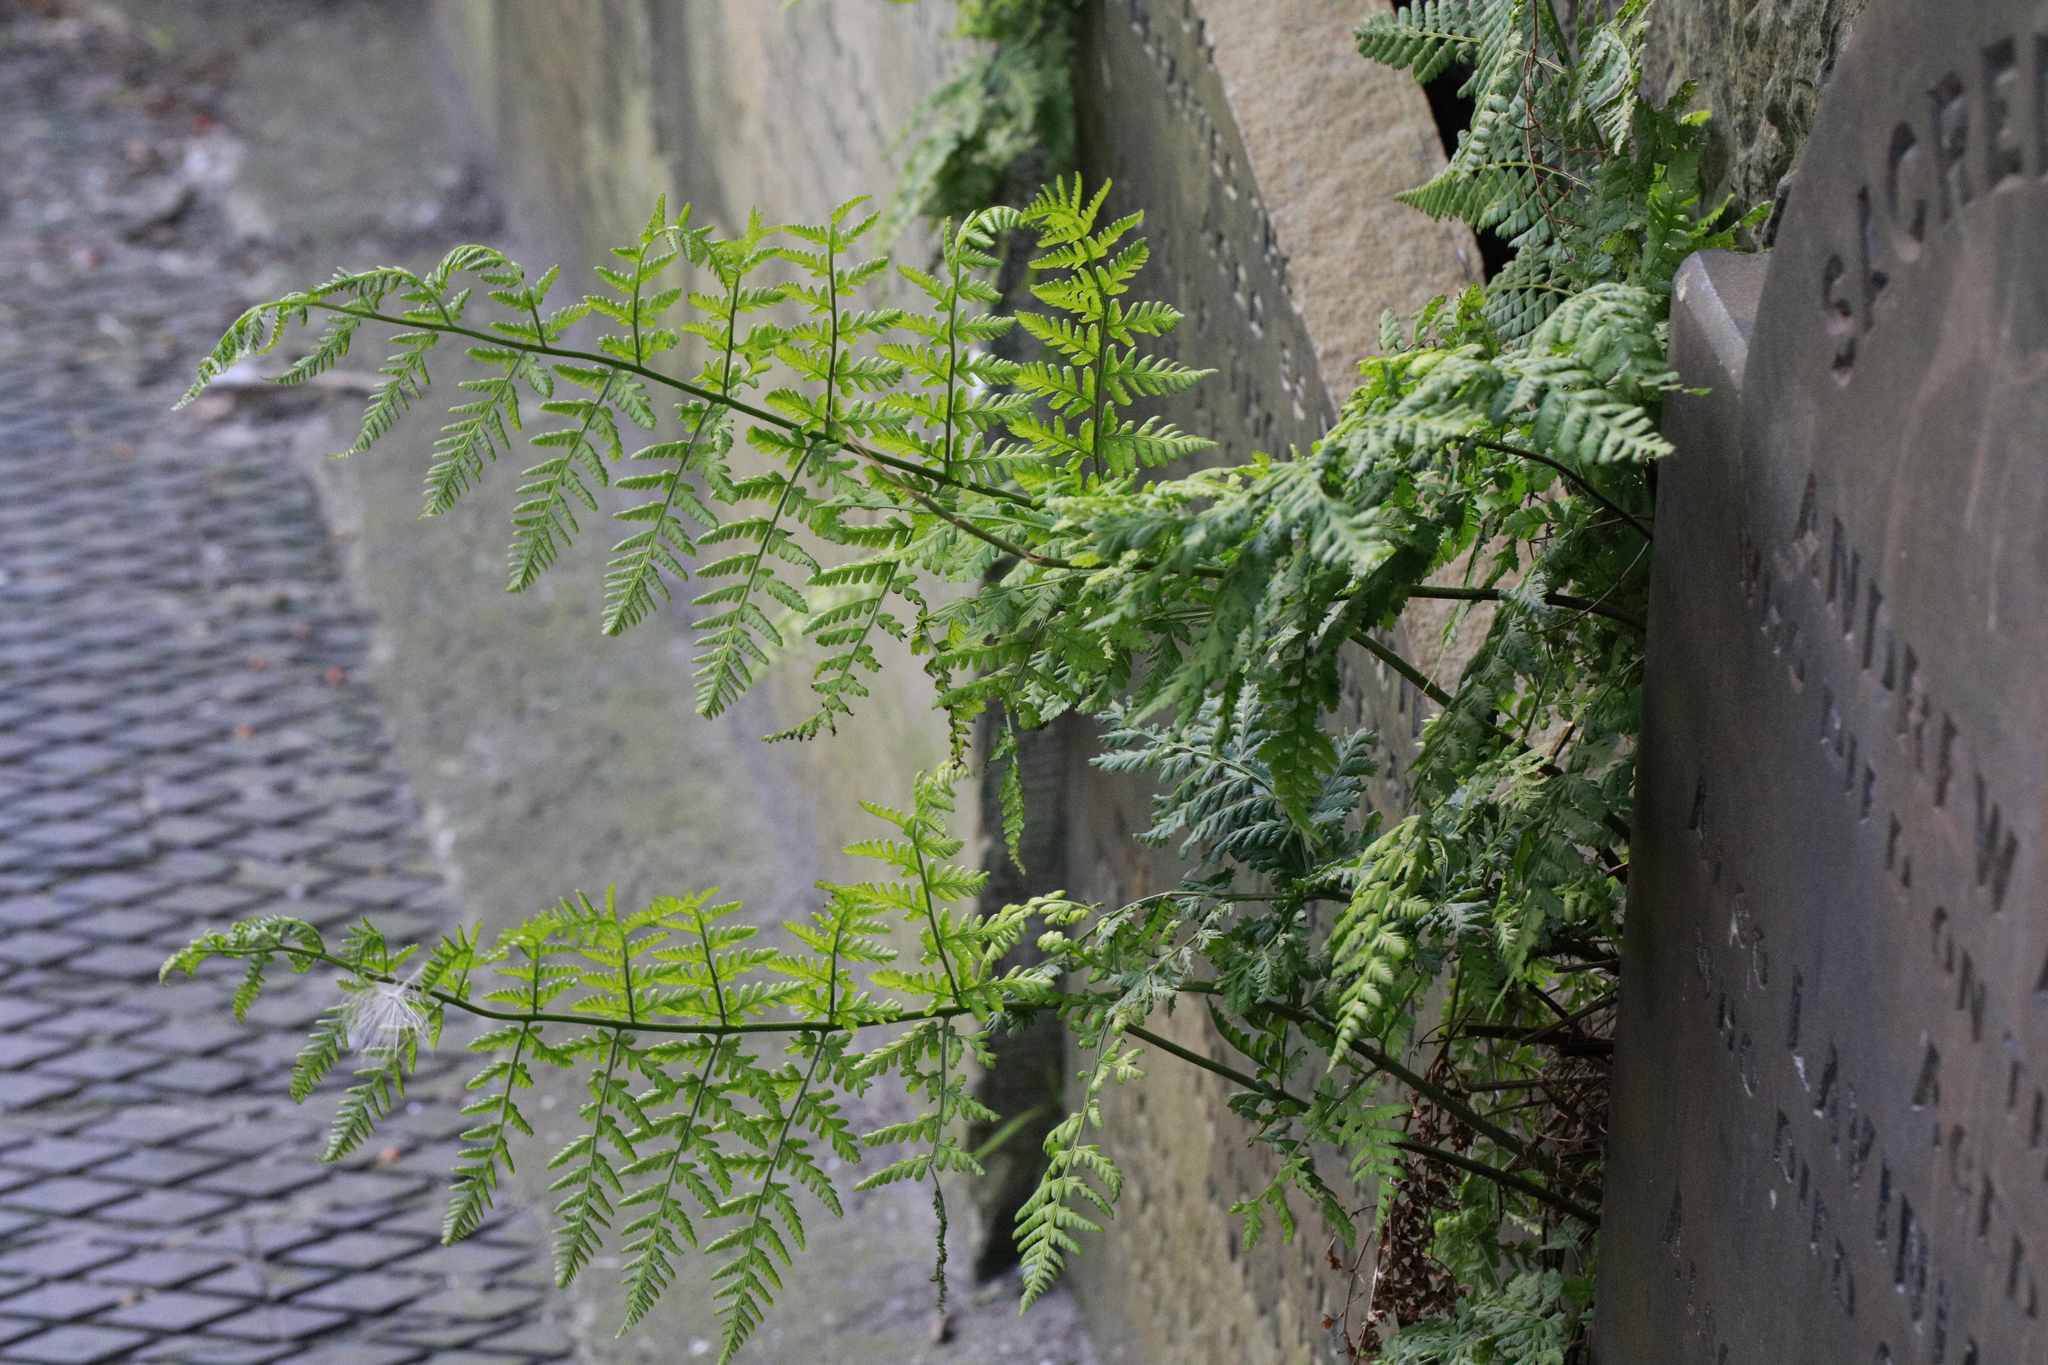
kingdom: Plantae
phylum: Tracheophyta
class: Polypodiopsida
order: Polypodiales
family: Dryopteridaceae
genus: Dryopteris
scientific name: Dryopteris dilatata
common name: Broad buckler-fern
